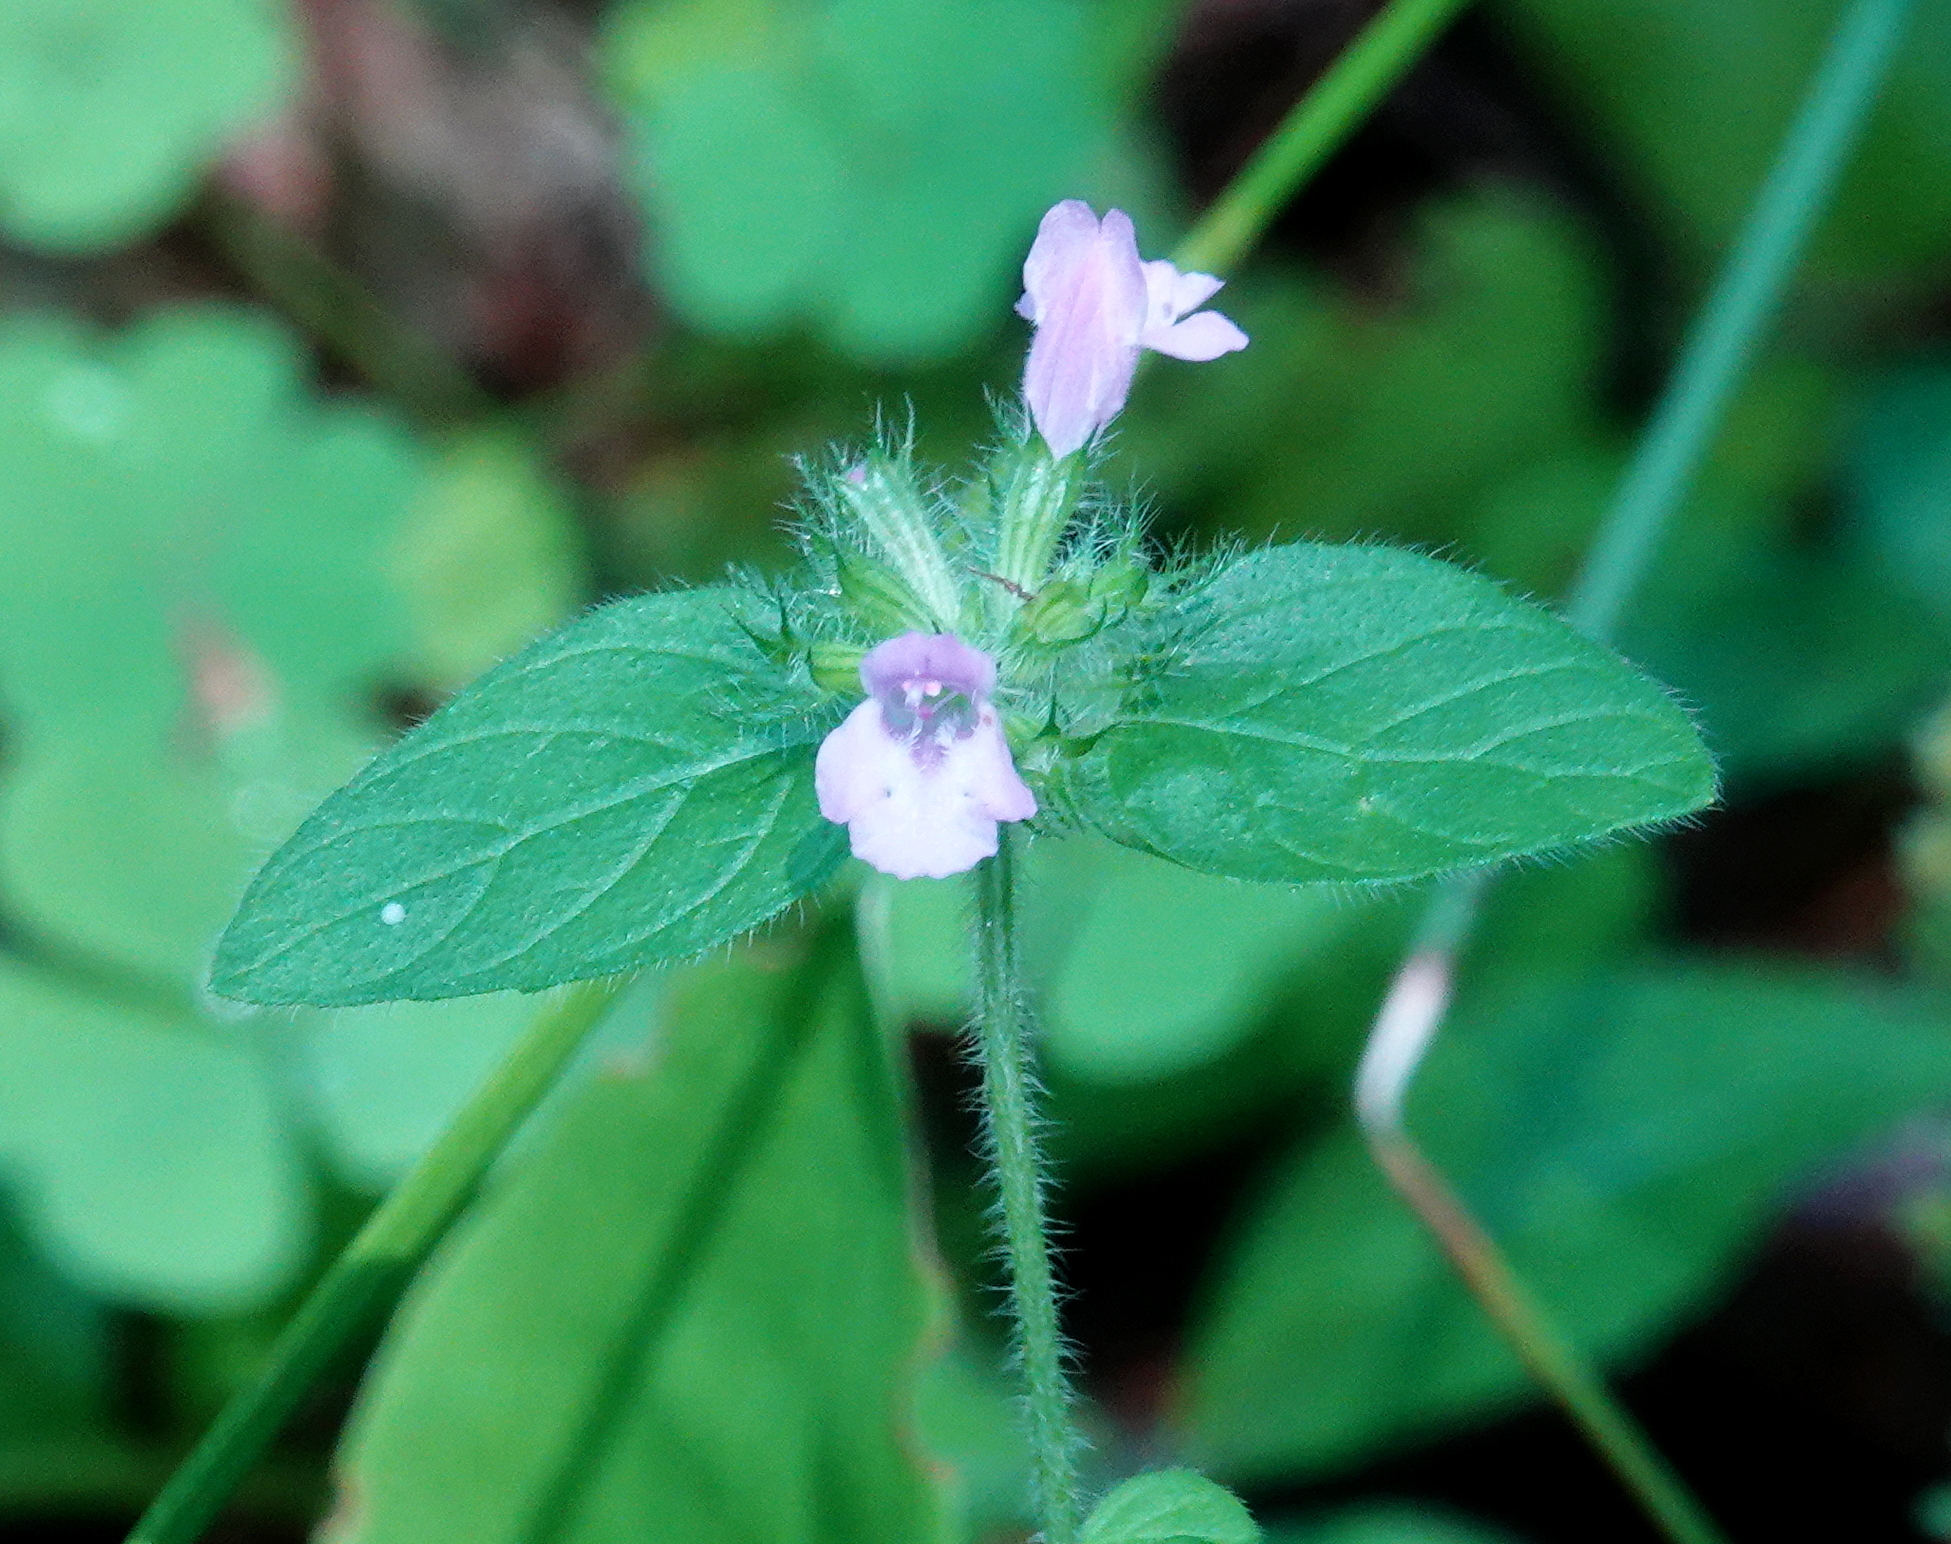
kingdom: Plantae
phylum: Tracheophyta
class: Magnoliopsida
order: Lamiales
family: Lamiaceae
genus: Clinopodium
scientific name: Clinopodium vulgare
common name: Wild basil
